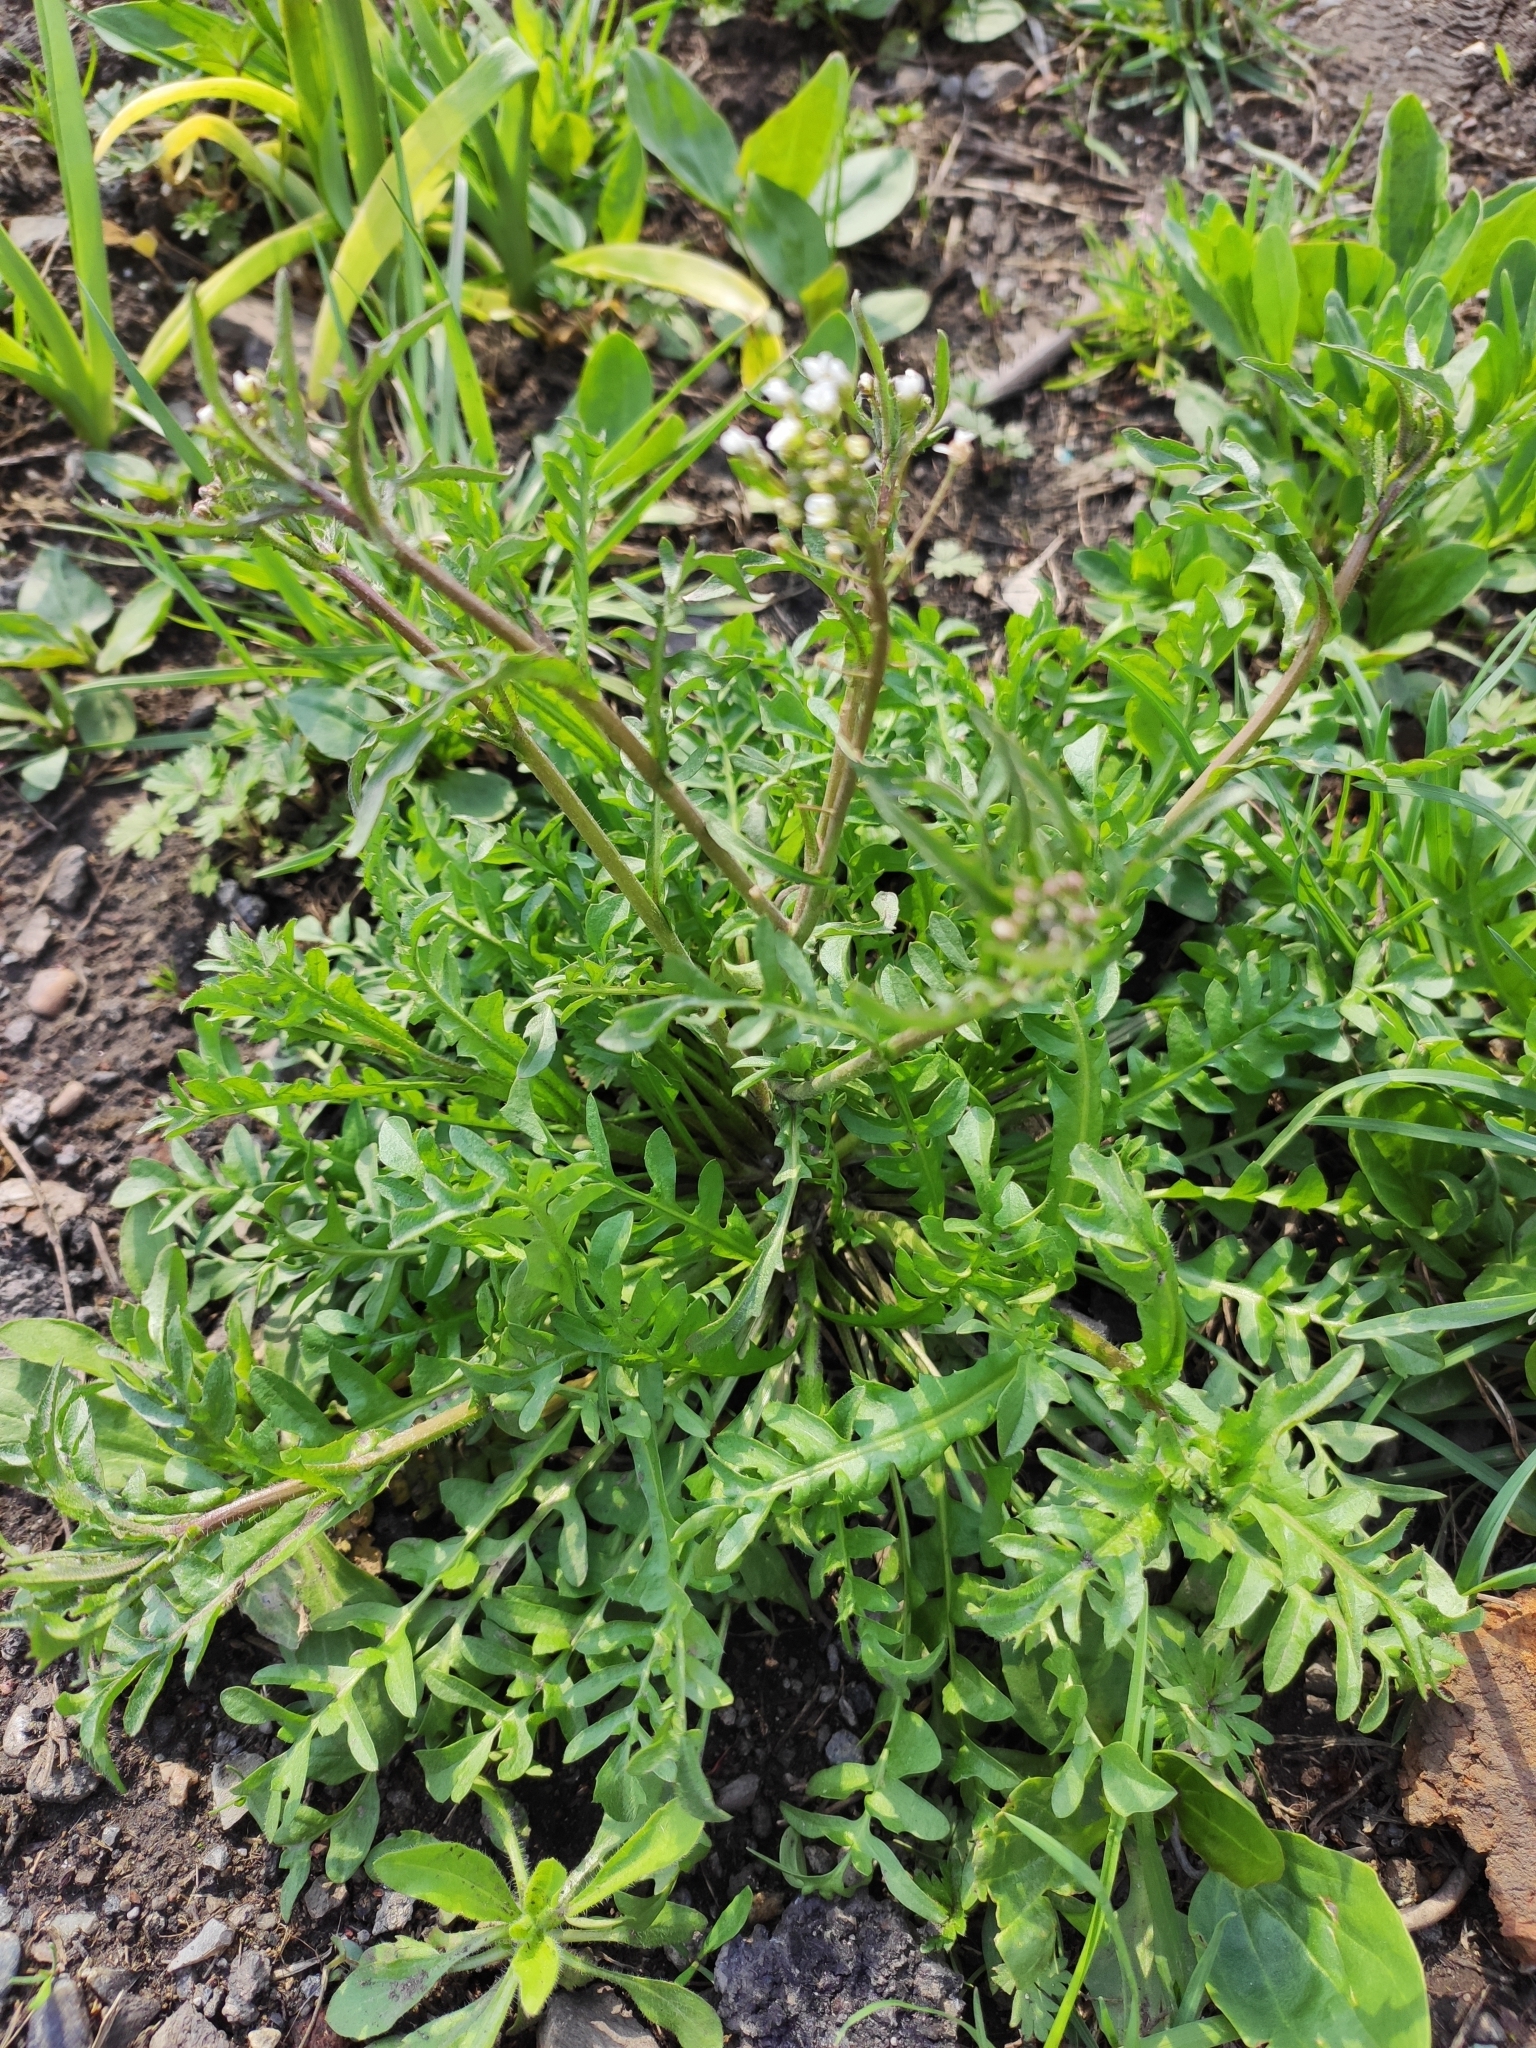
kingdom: Plantae
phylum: Tracheophyta
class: Magnoliopsida
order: Brassicales
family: Brassicaceae
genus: Capsella
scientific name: Capsella bursa-pastoris
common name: Shepherd's purse
